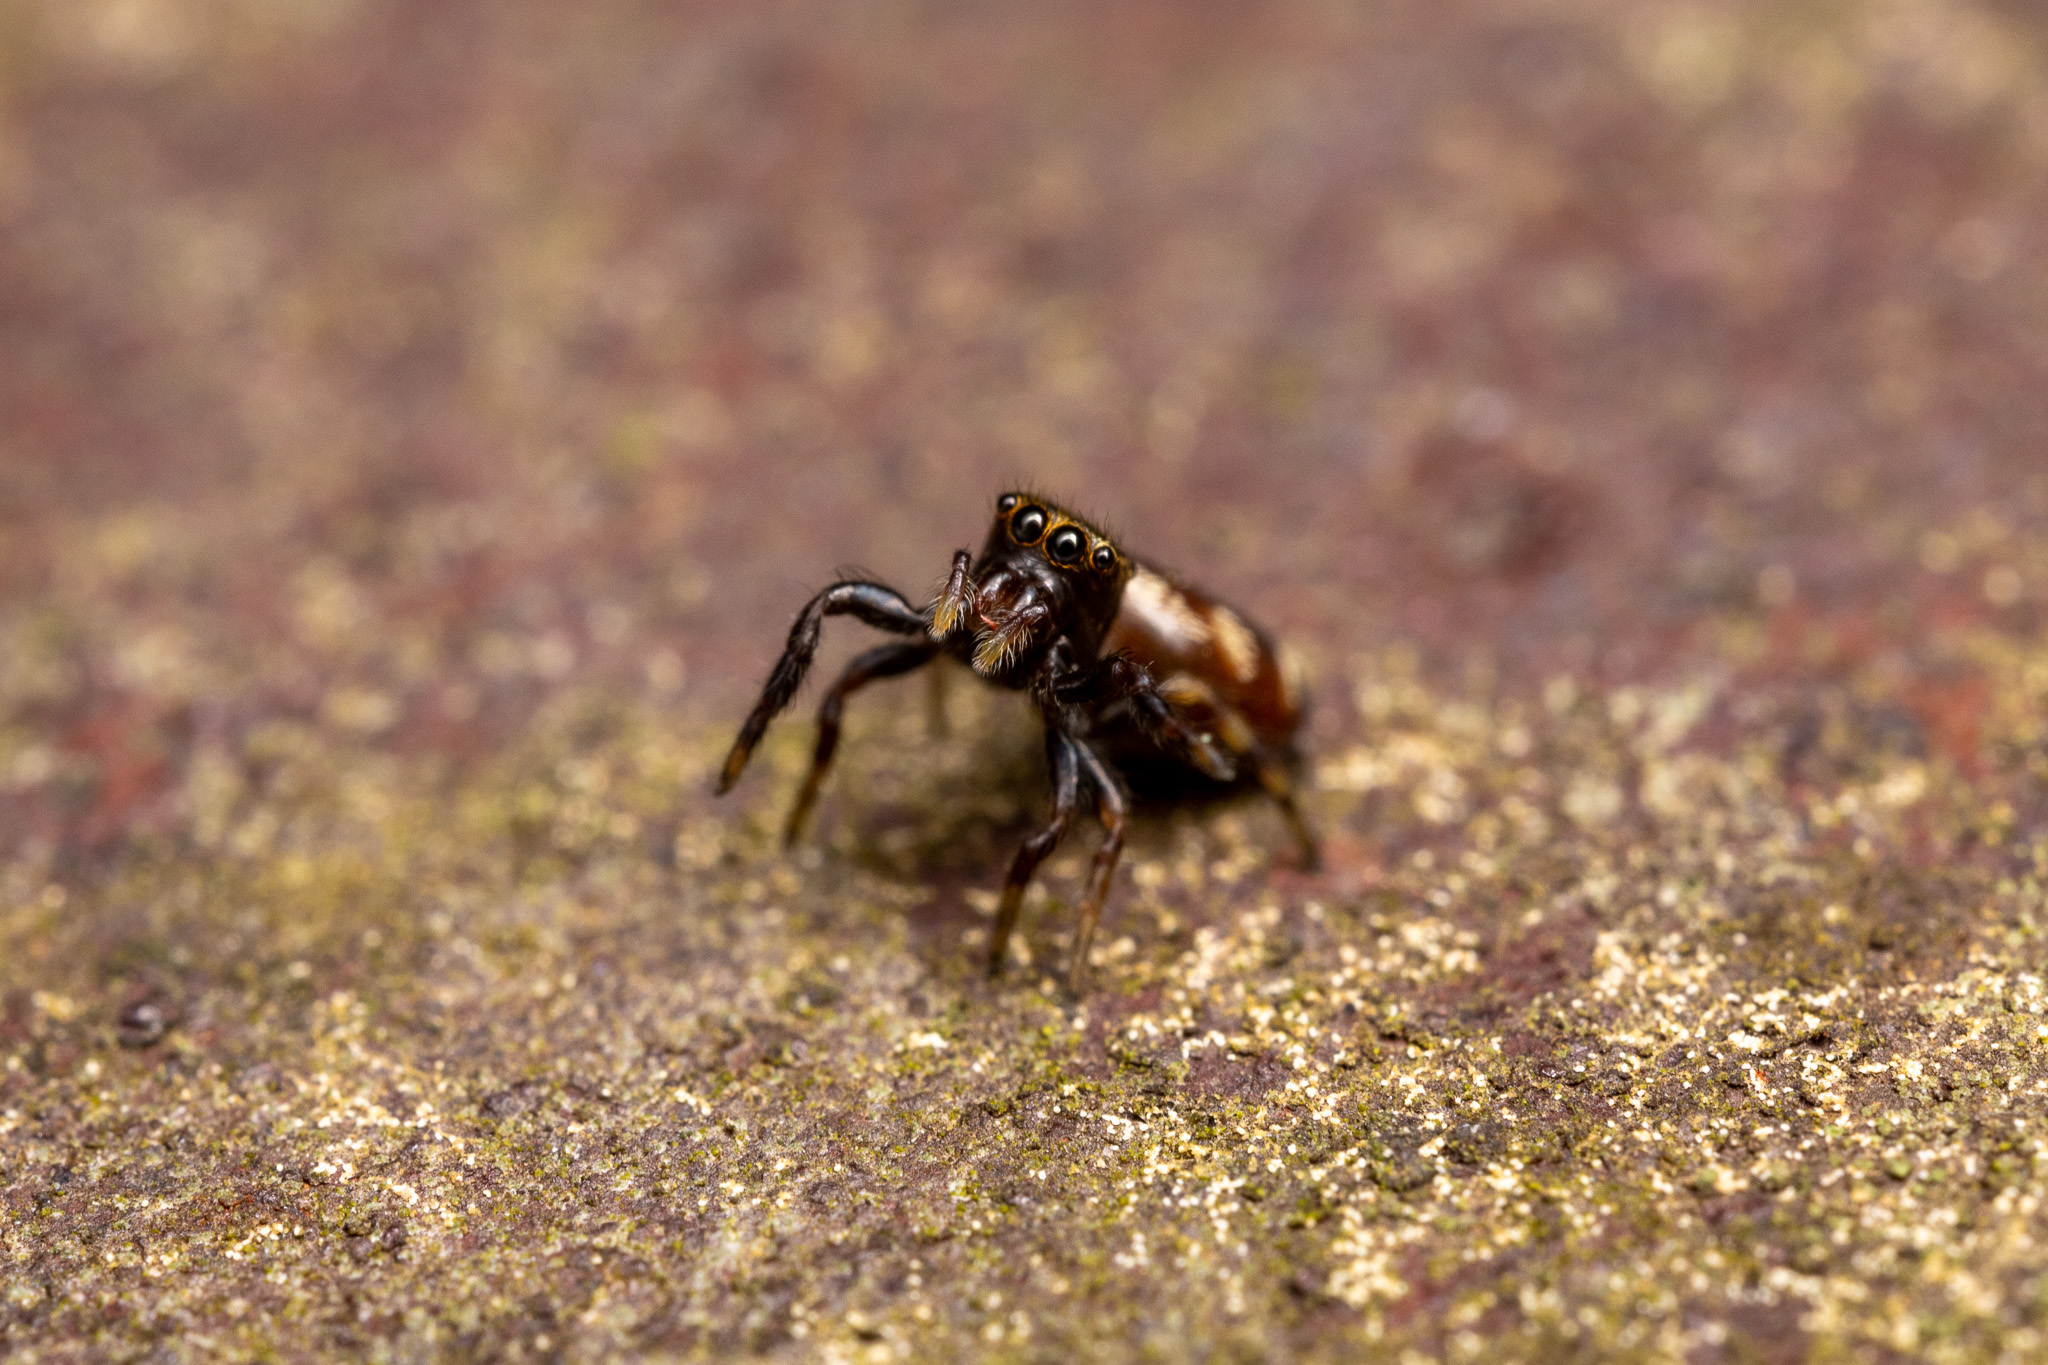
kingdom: Animalia
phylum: Arthropoda
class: Arachnida
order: Araneae
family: Salticidae
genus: Paraphidippus
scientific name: Paraphidippus aurantius
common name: Jumping spiders
